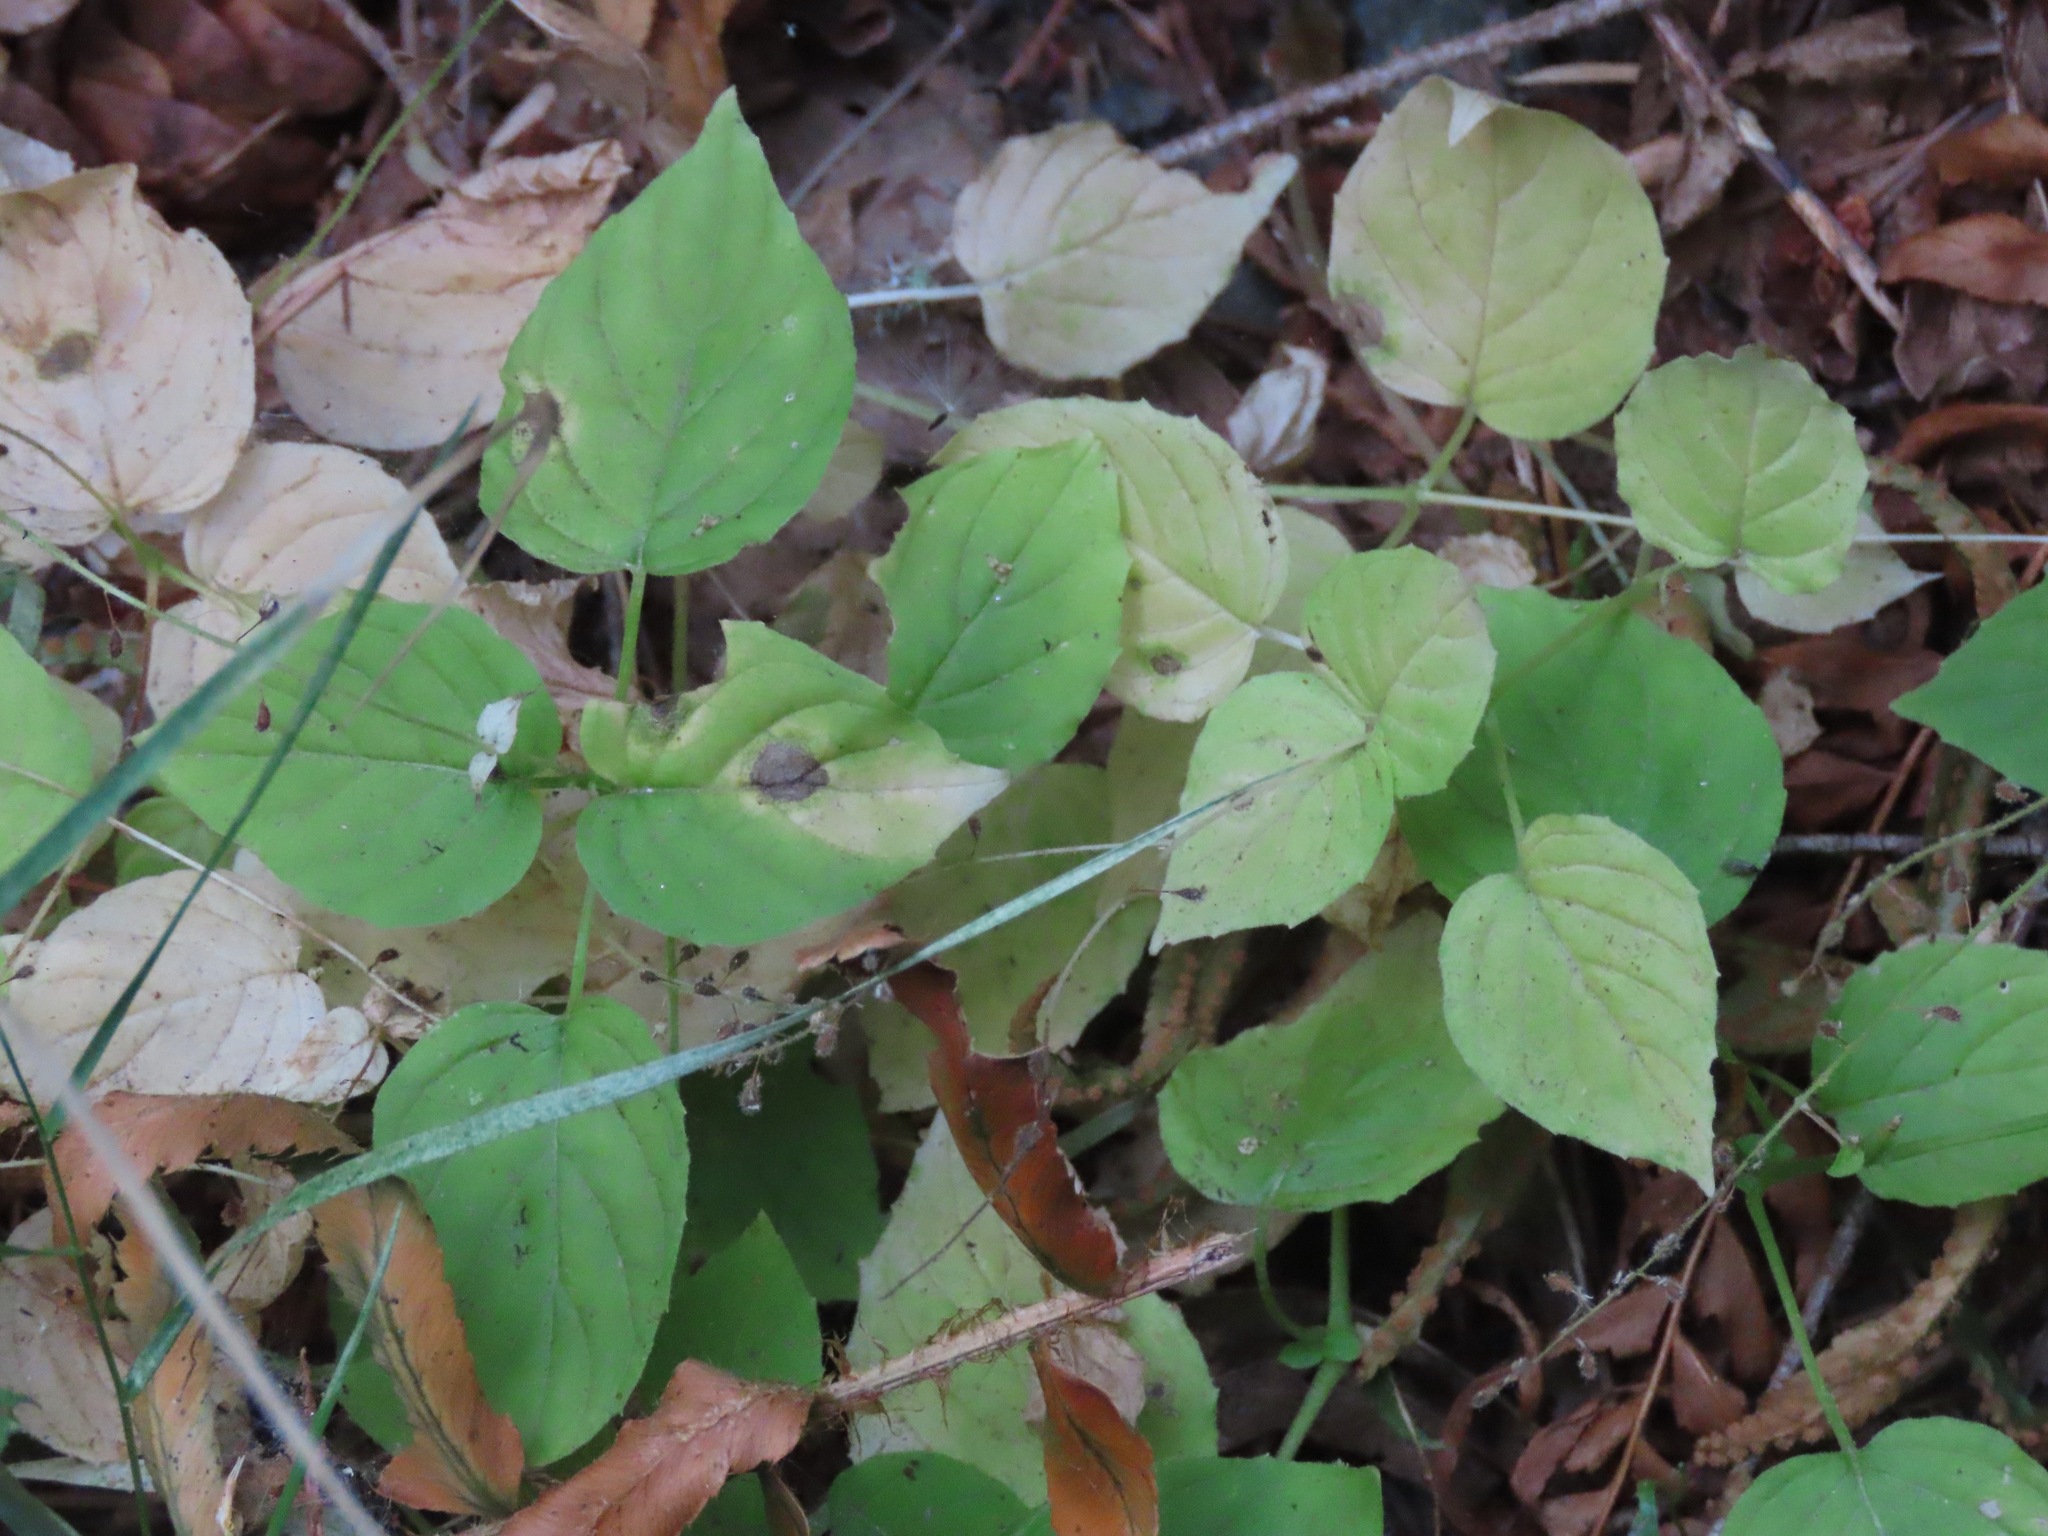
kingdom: Plantae
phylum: Tracheophyta
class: Magnoliopsida
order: Myrtales
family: Onagraceae
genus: Circaea
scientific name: Circaea alpina
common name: Alpine enchanter's-nightshade
